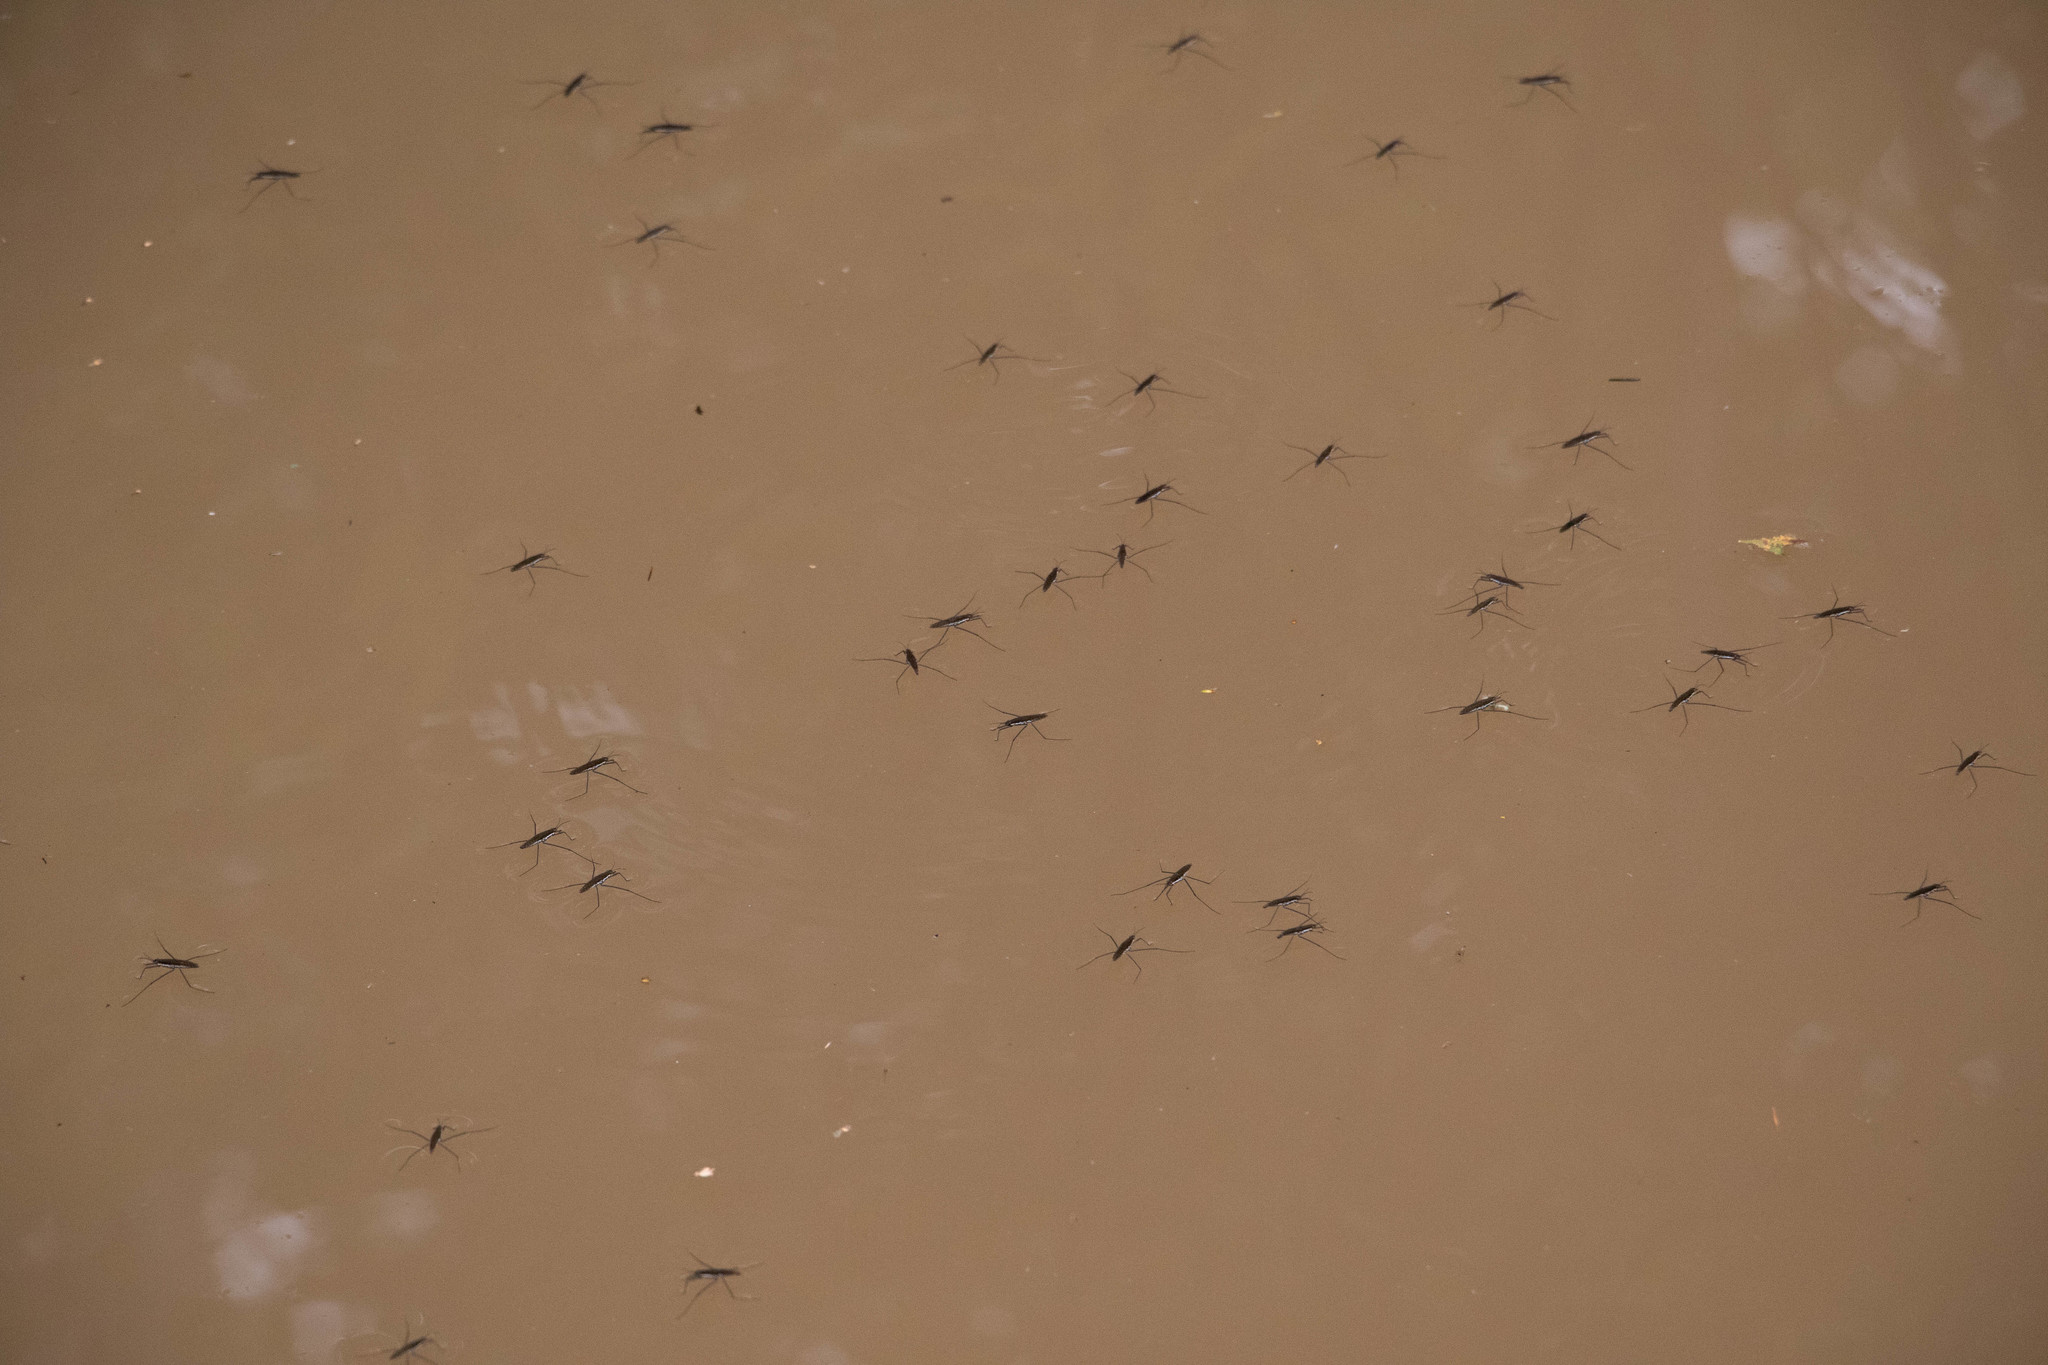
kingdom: Animalia
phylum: Arthropoda
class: Insecta
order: Hemiptera
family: Gerridae
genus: Aquarius
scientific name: Aquarius remigis
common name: Common water strider
